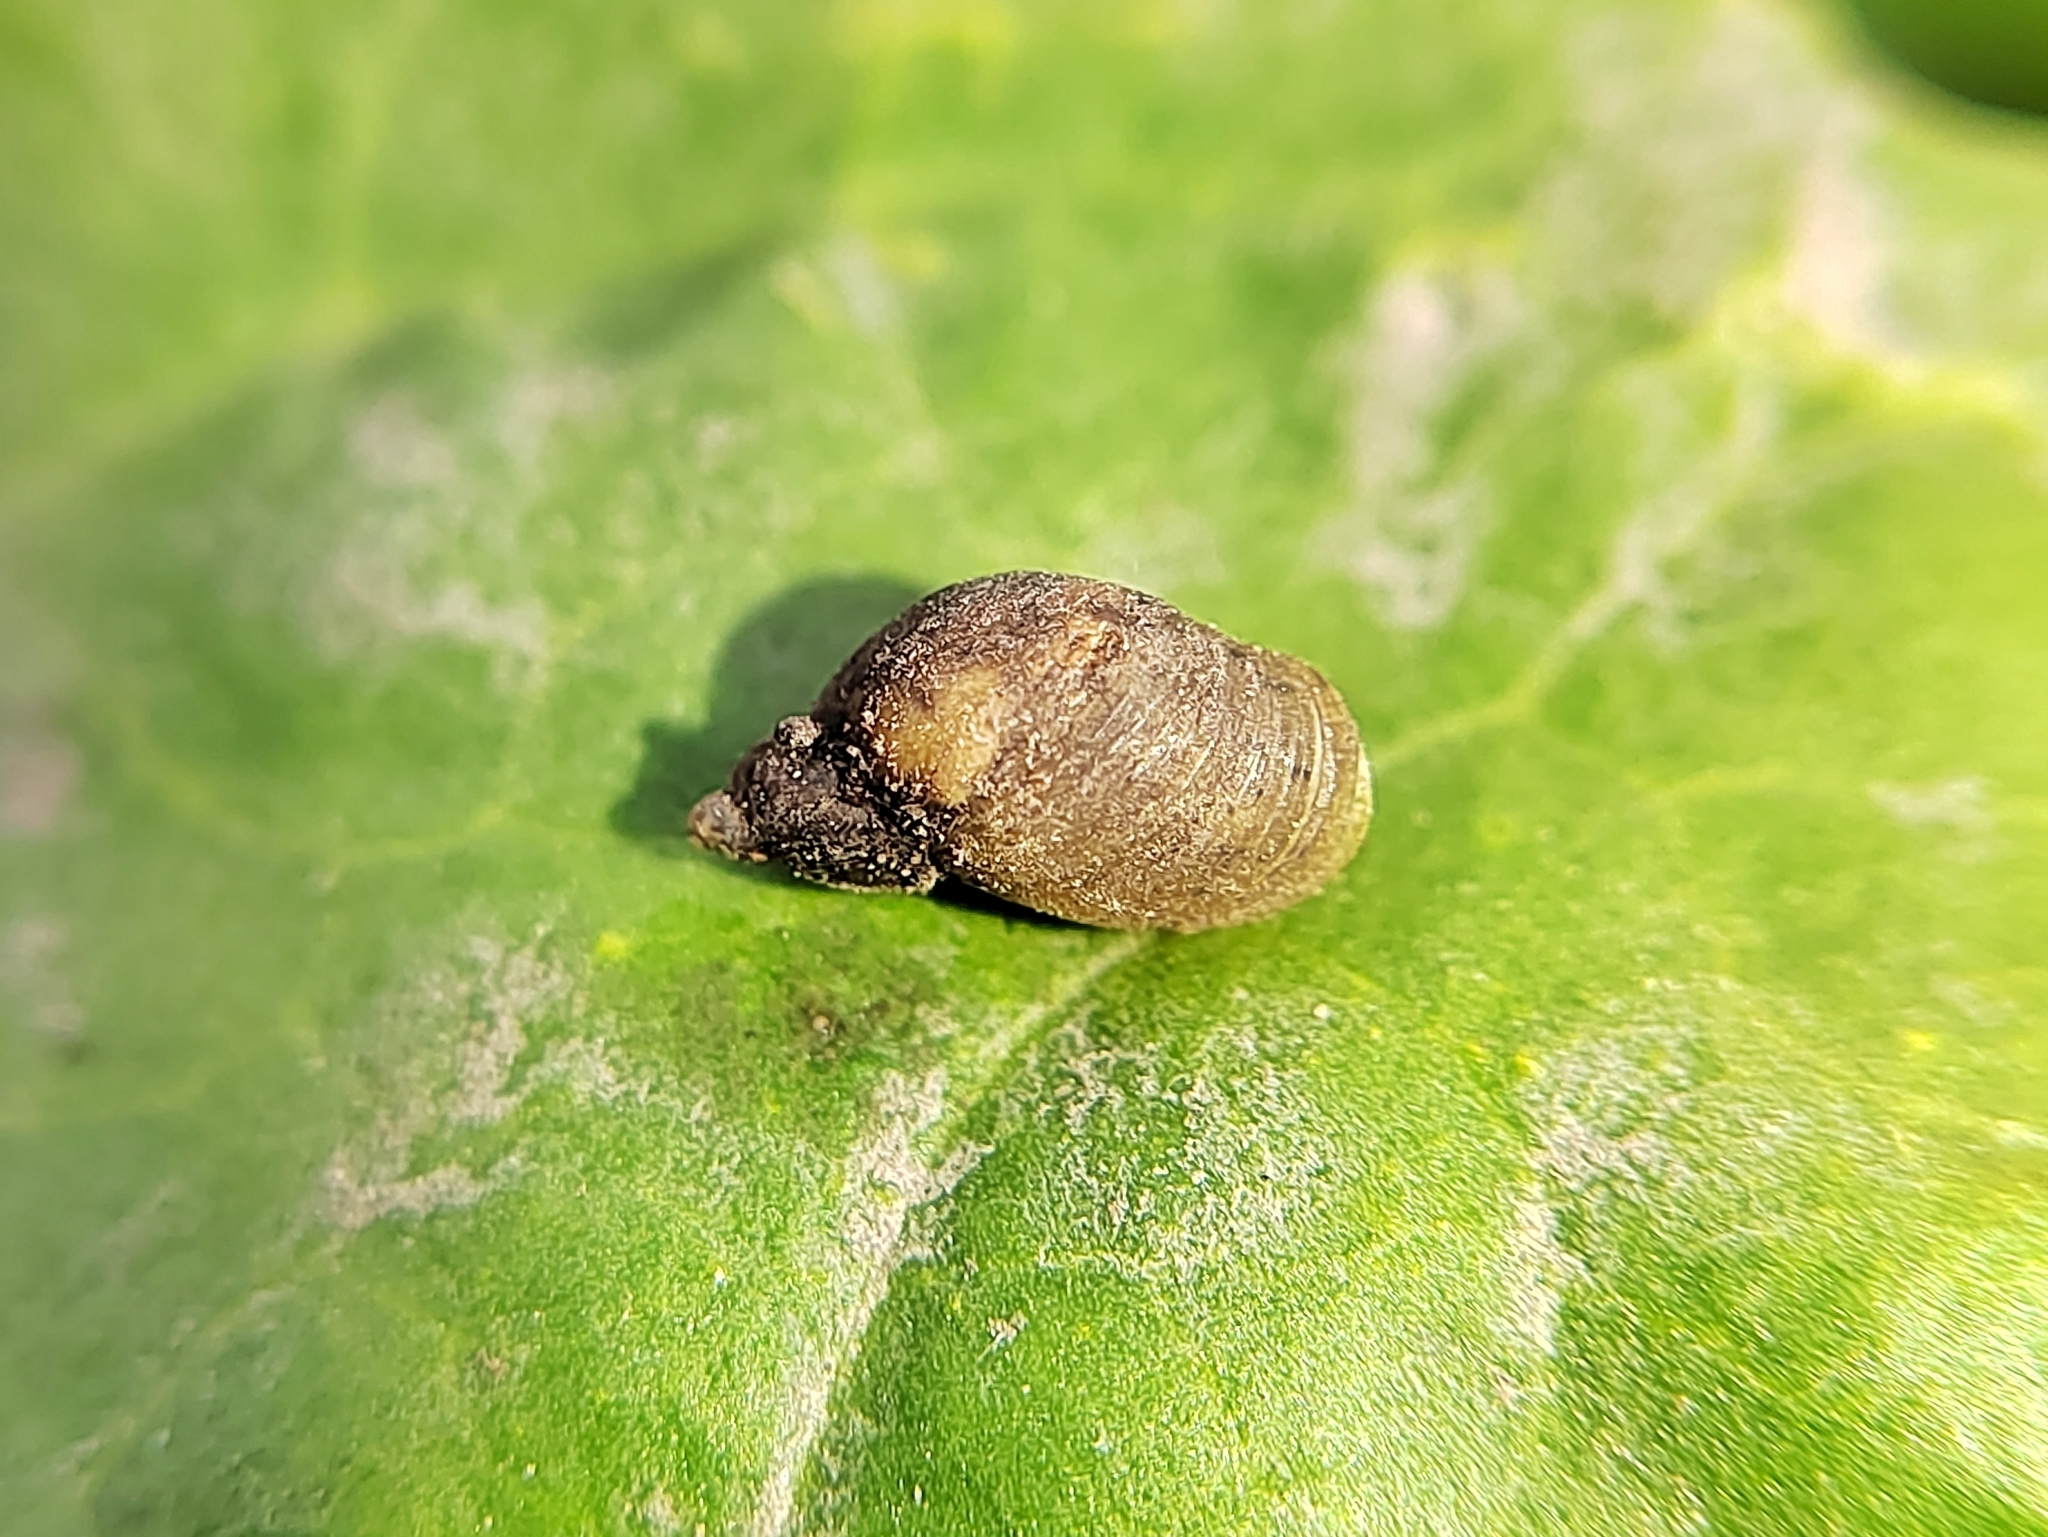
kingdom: Animalia
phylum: Mollusca
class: Gastropoda
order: Stylommatophora
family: Succineidae
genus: Succinella
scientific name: Succinella oblonga
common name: Small amber snail
